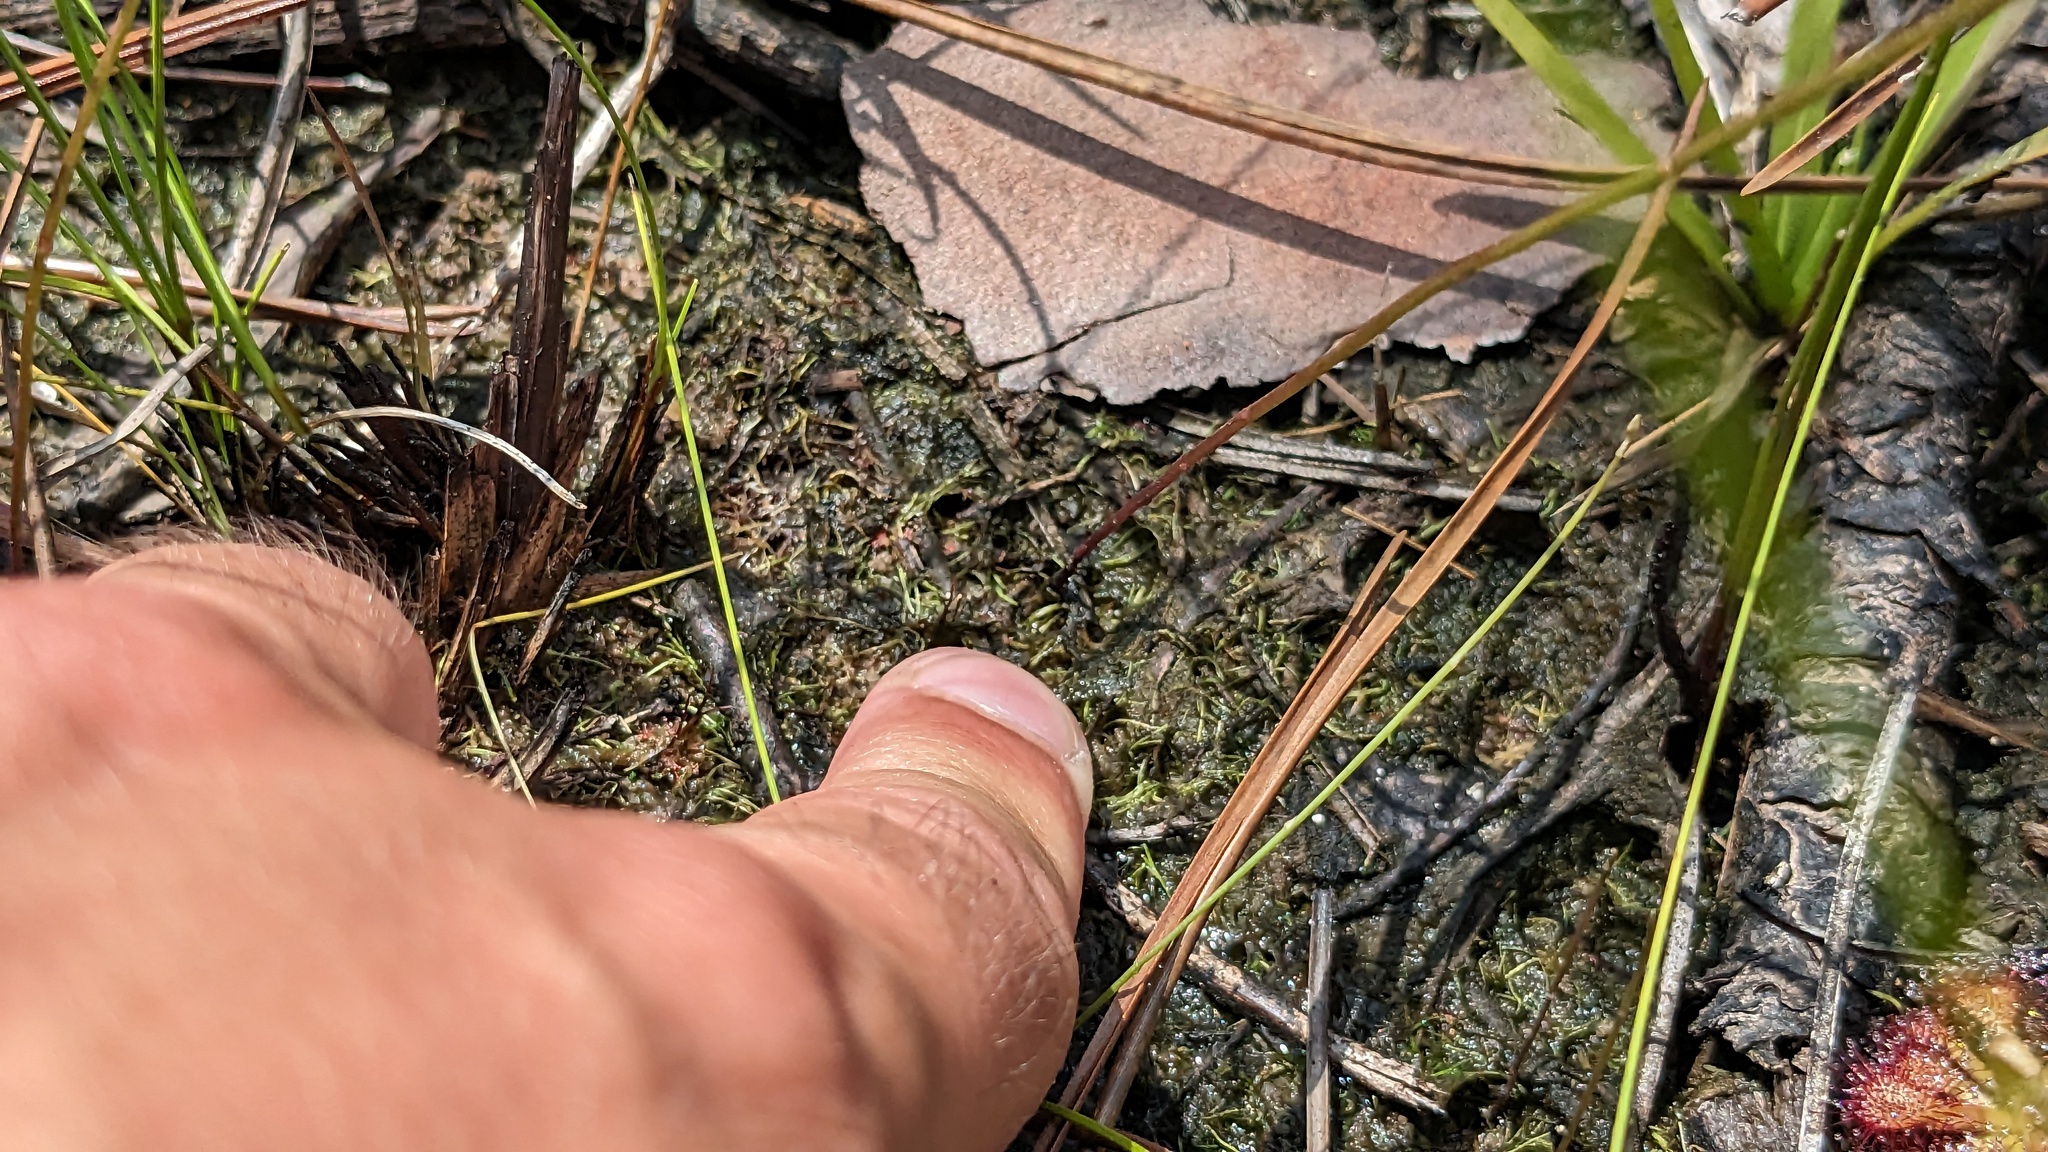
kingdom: Plantae
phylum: Tracheophyta
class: Magnoliopsida
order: Lamiales
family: Lentibulariaceae
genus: Utricularia
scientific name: Utricularia juncea
